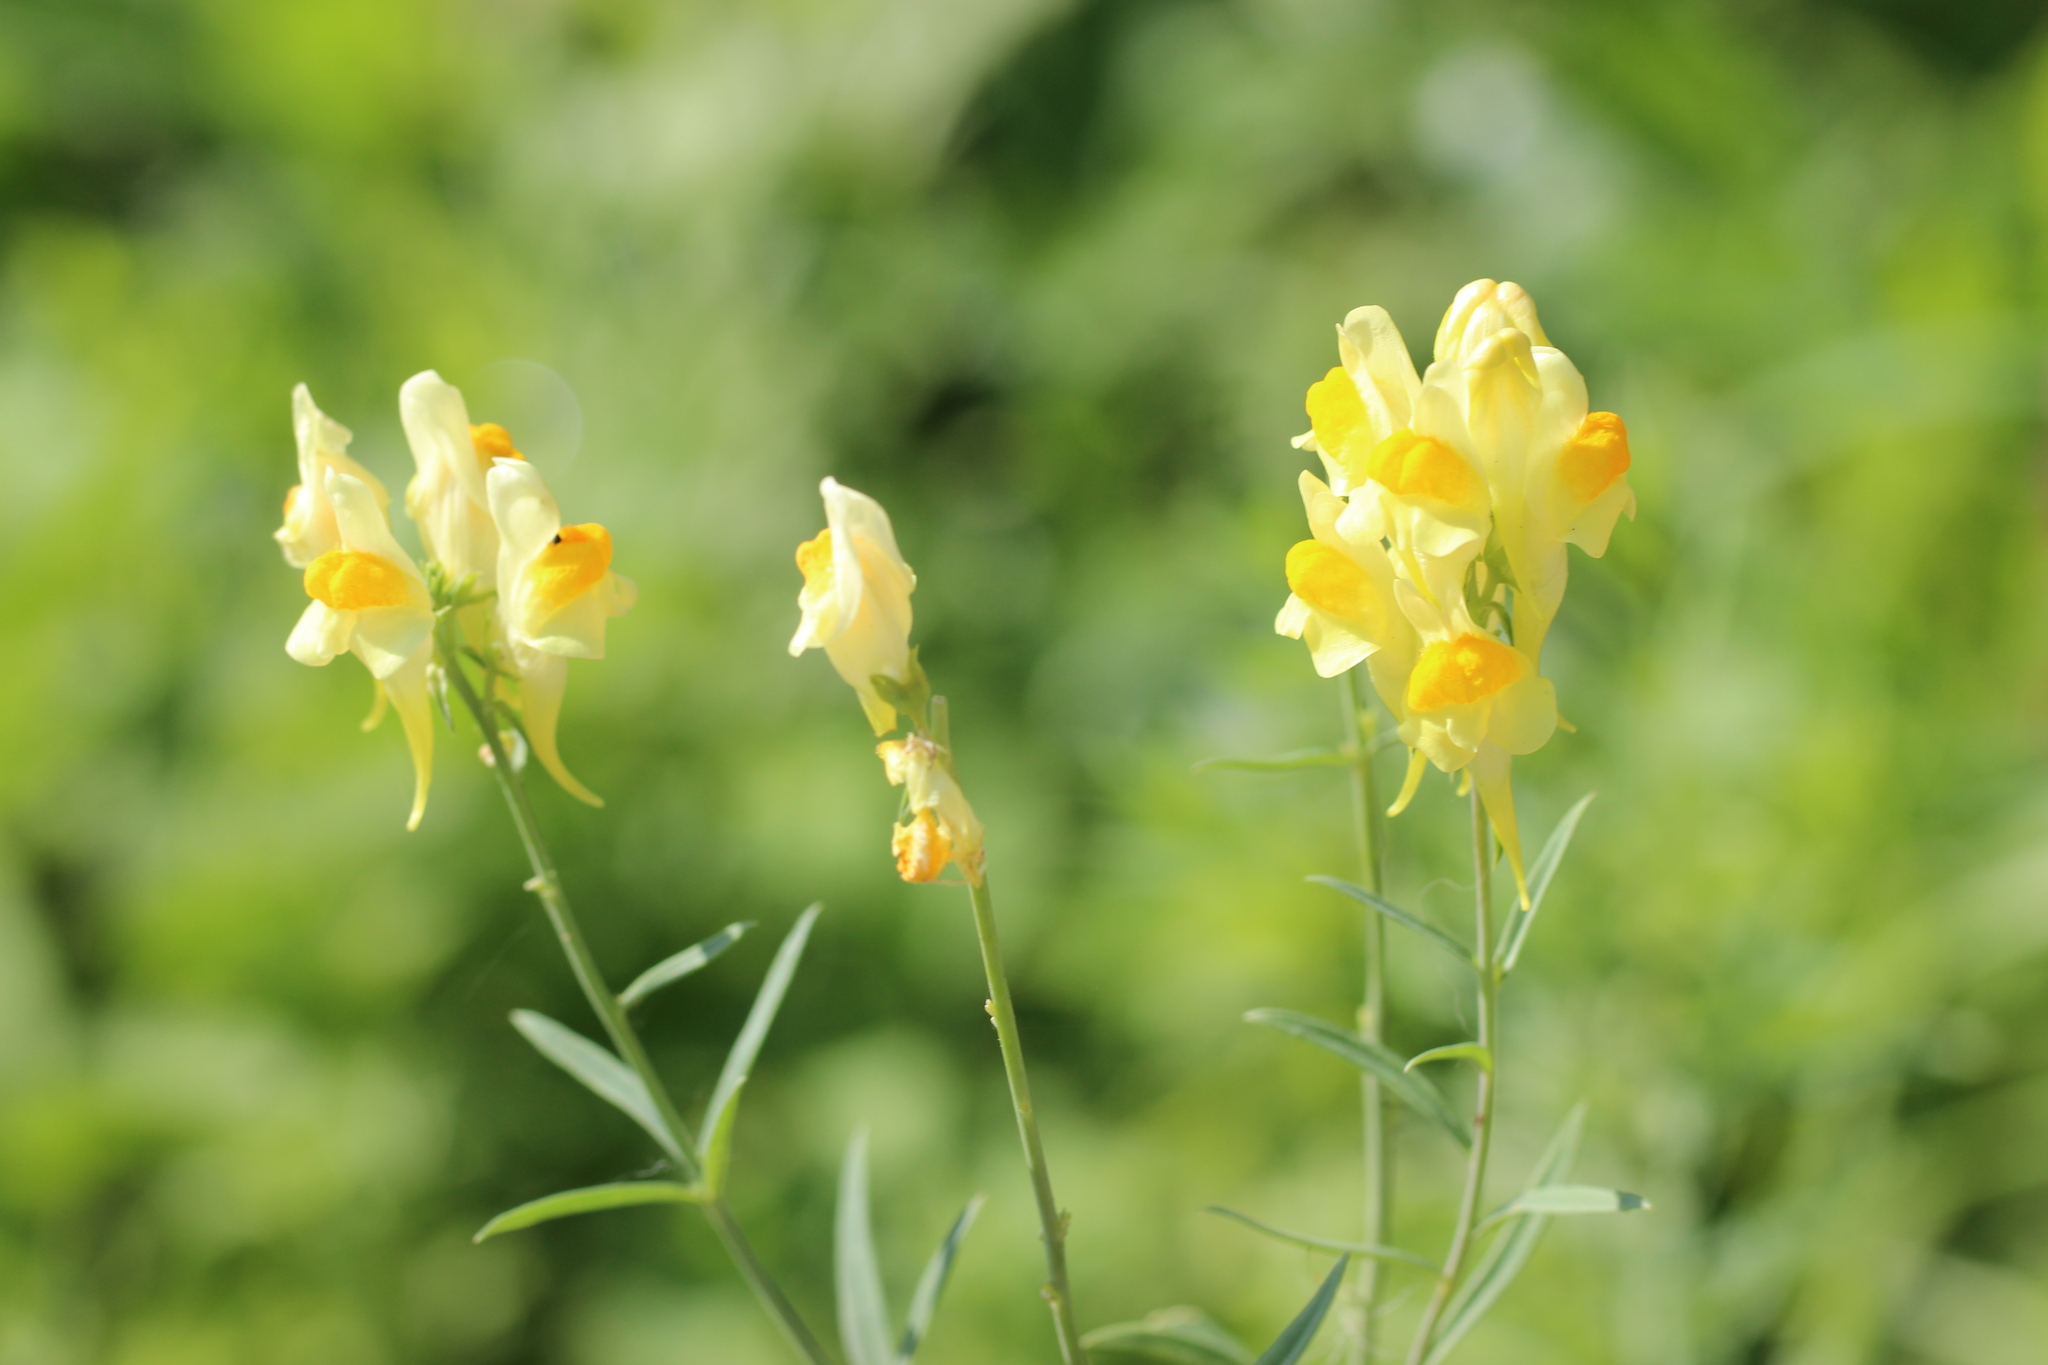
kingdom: Plantae
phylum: Tracheophyta
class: Magnoliopsida
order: Lamiales
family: Plantaginaceae
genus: Linaria
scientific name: Linaria vulgaris
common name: Butter and eggs
